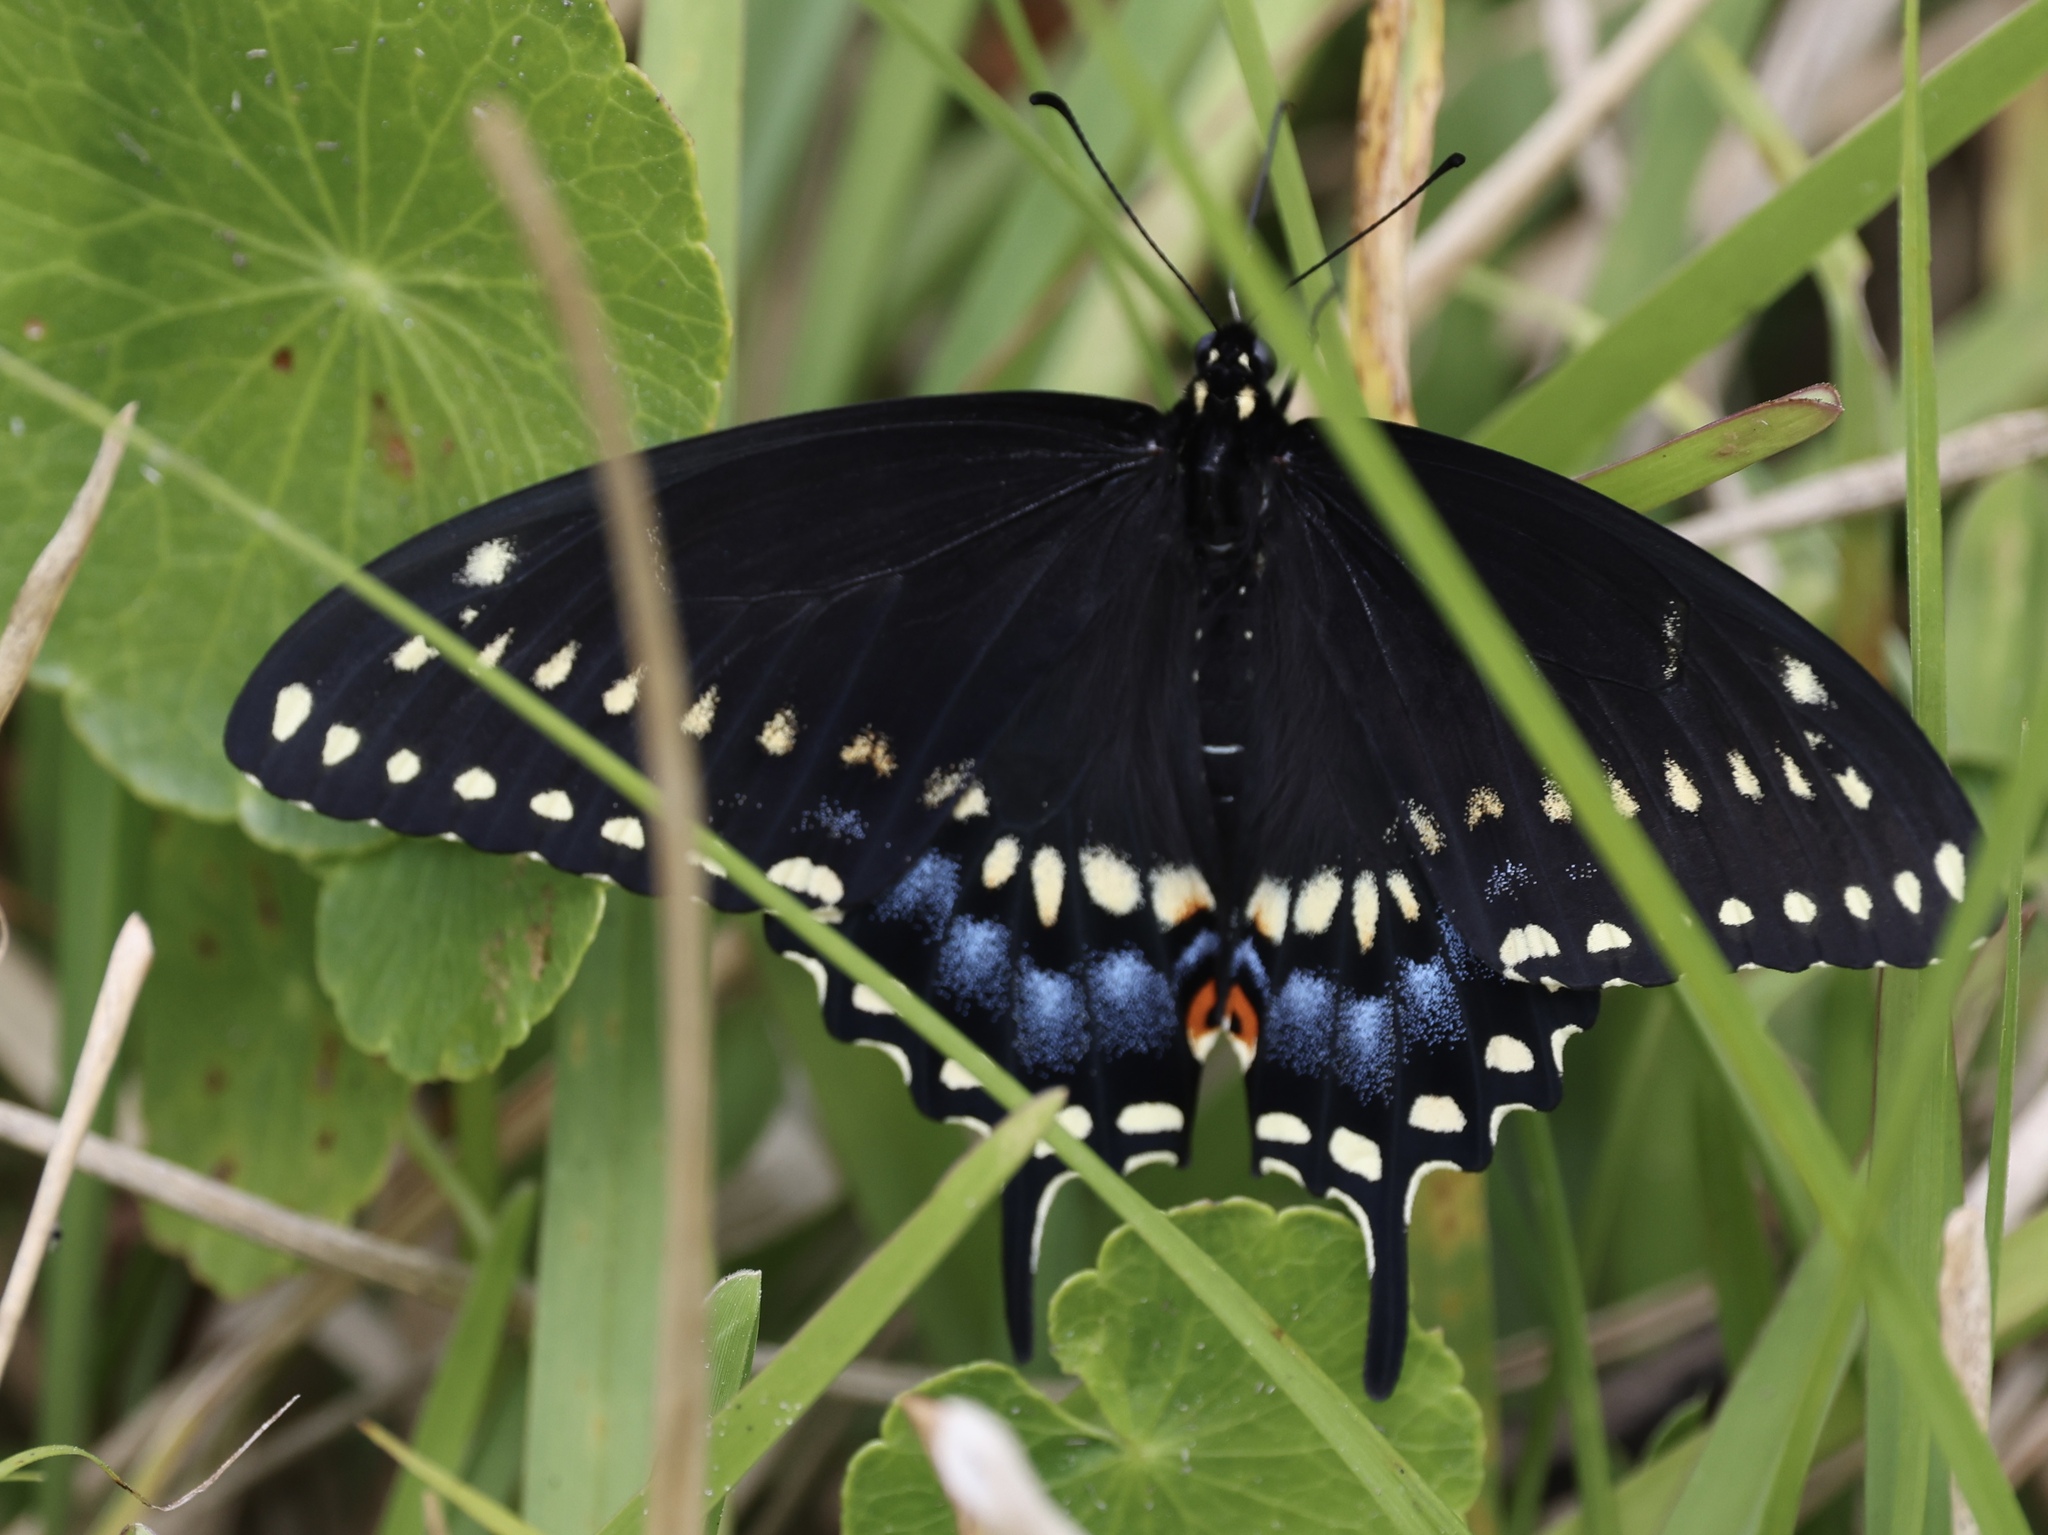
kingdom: Animalia
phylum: Arthropoda
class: Insecta
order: Lepidoptera
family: Papilionidae
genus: Papilio
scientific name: Papilio polyxenes
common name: Black swallowtail
